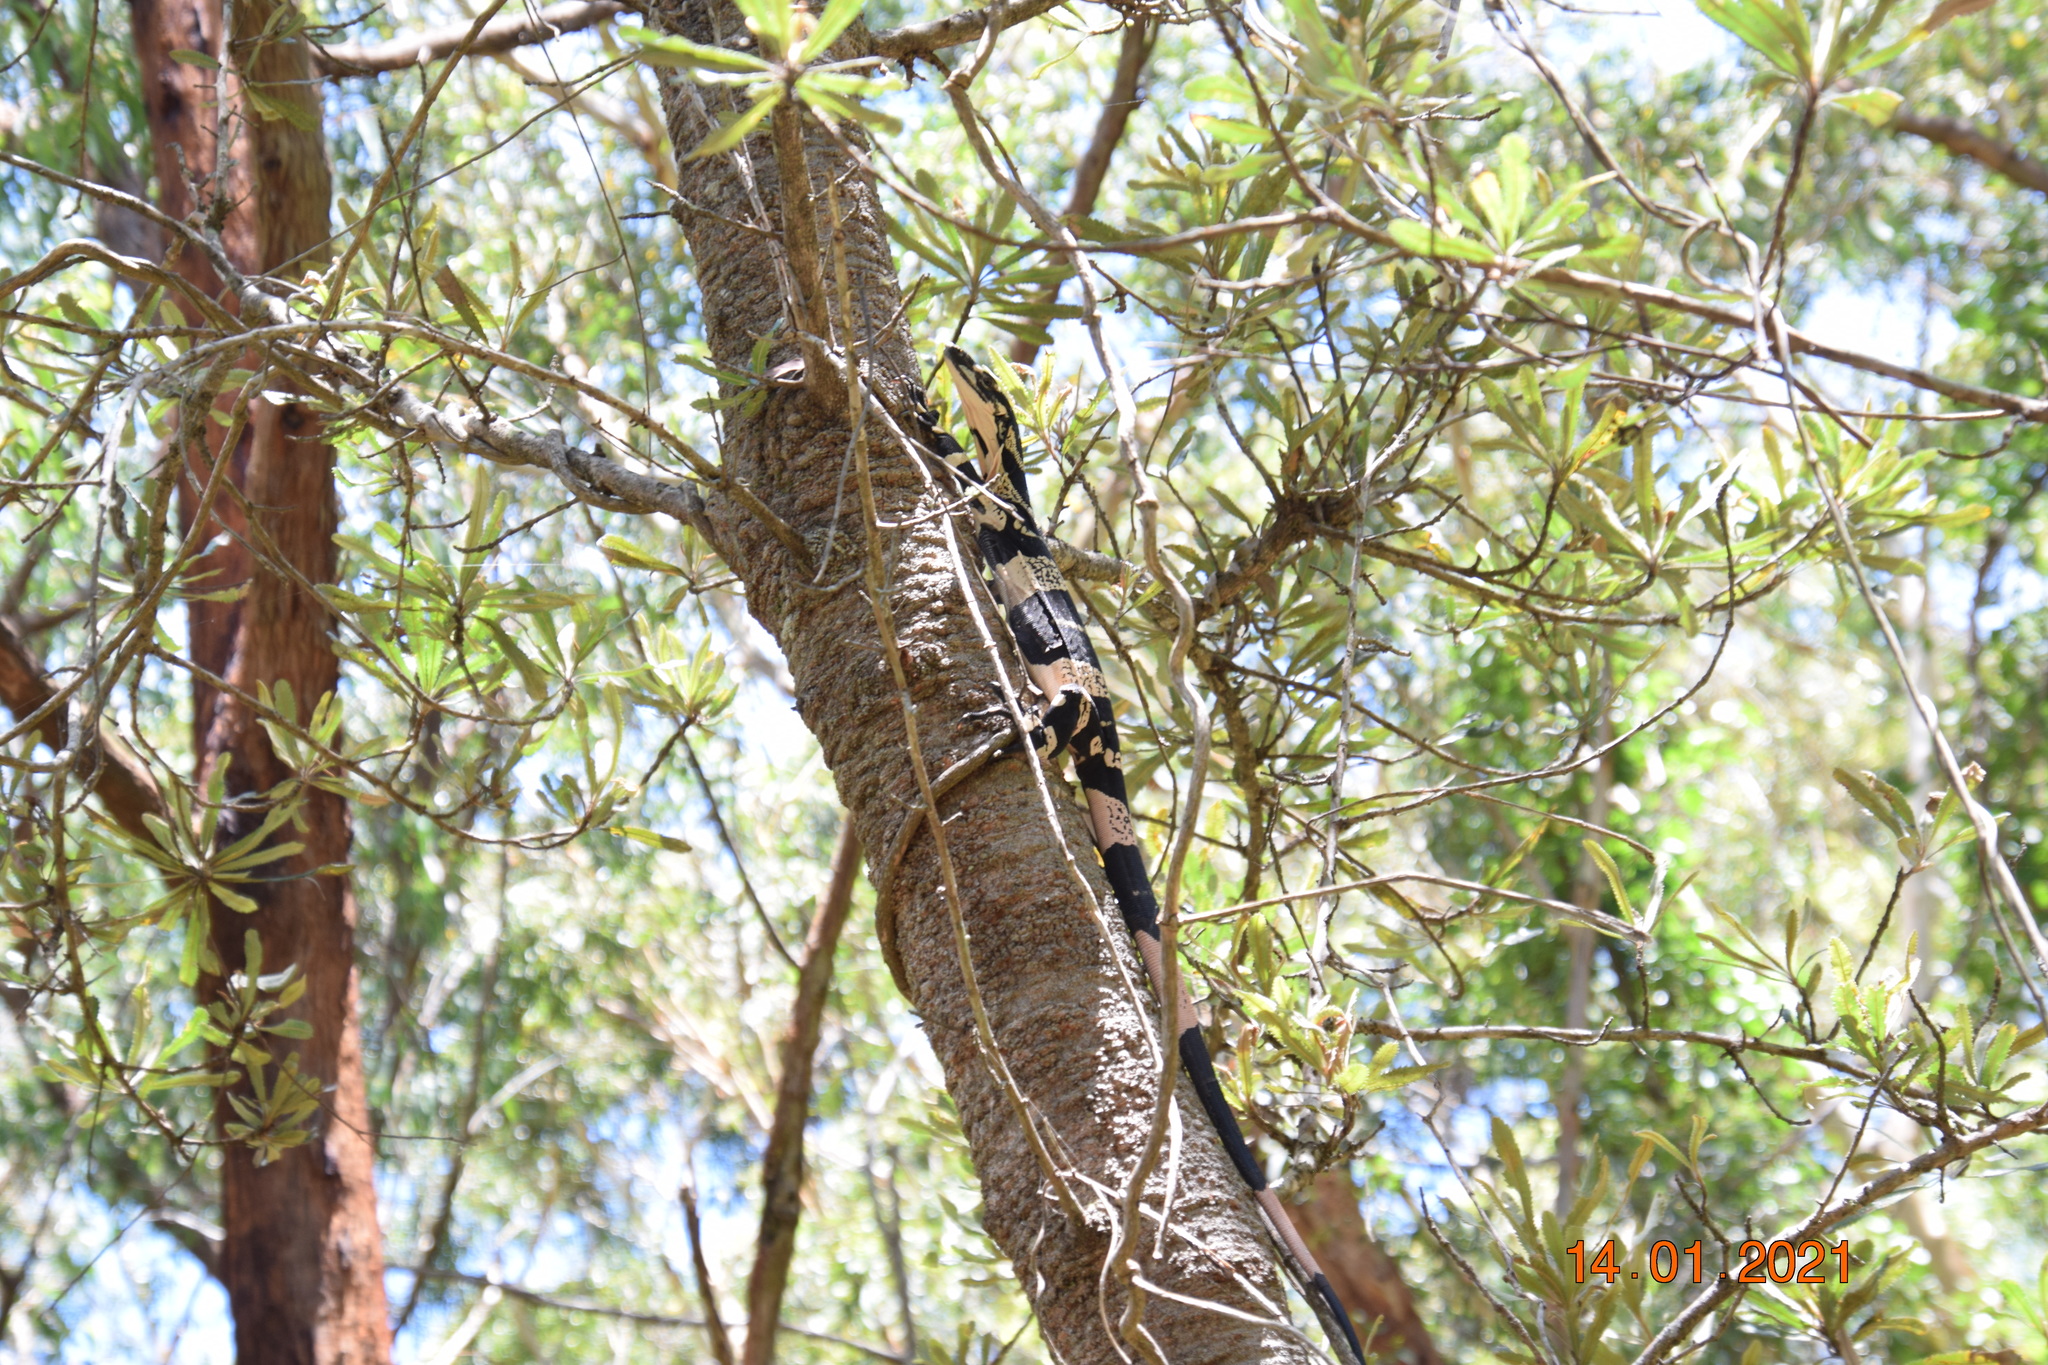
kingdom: Animalia
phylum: Chordata
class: Squamata
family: Varanidae
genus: Varanus
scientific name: Varanus varius
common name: Lace monitor
